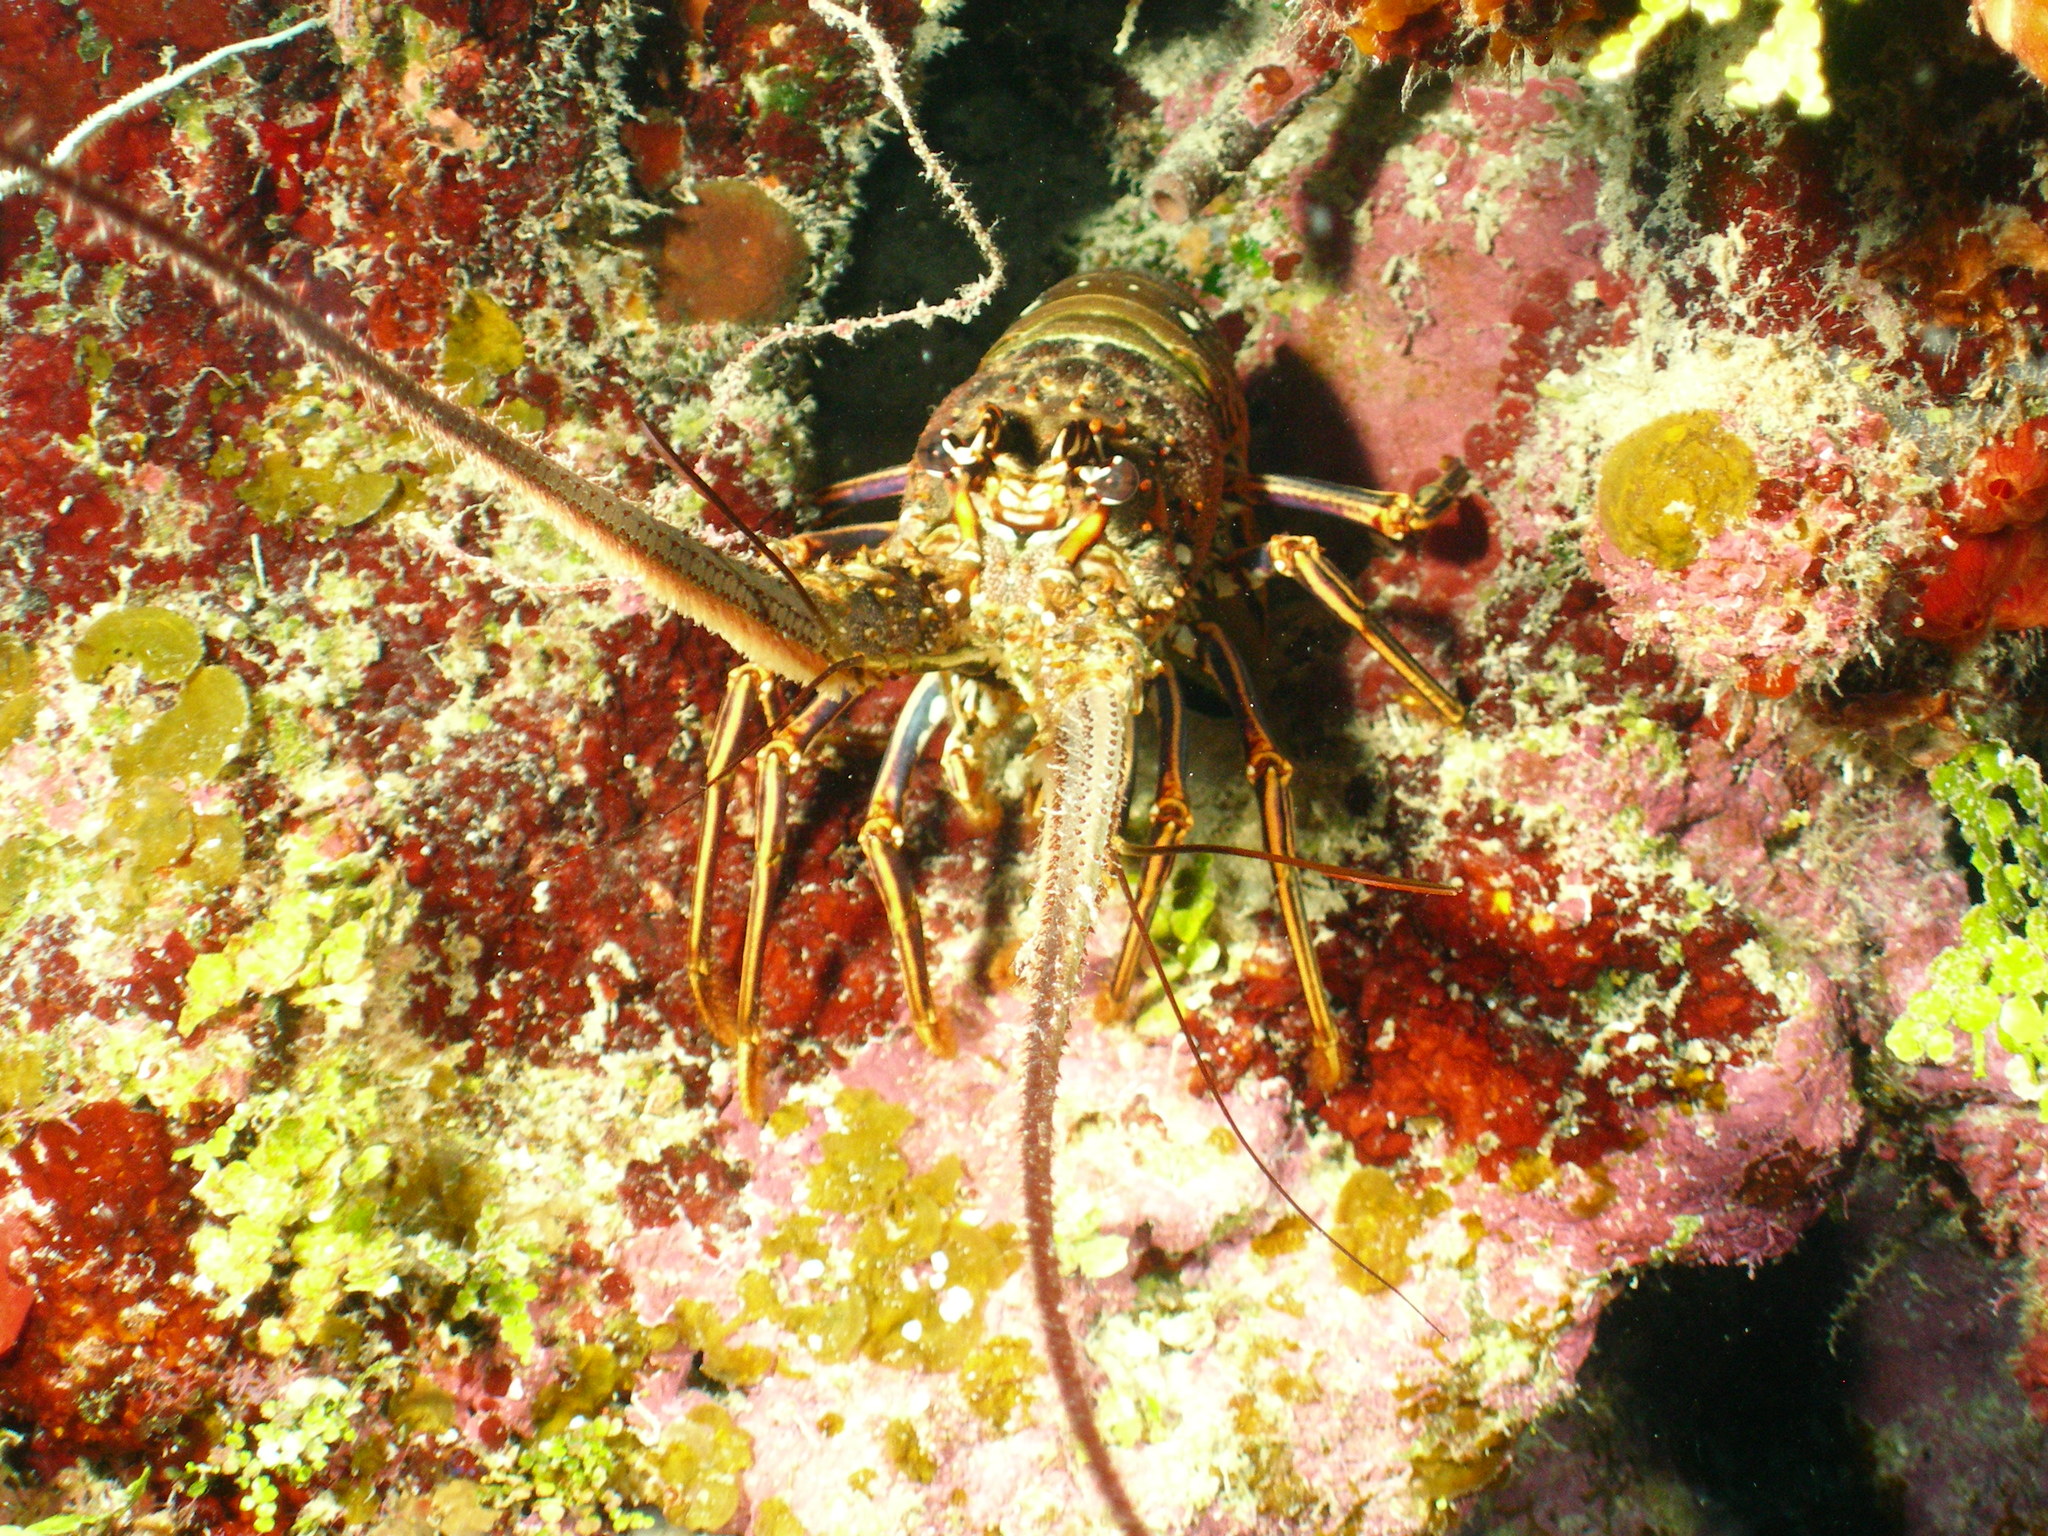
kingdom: Animalia
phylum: Arthropoda
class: Malacostraca
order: Decapoda
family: Palinuridae
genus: Panulirus
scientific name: Panulirus argus
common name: Caribbean spiny lobster
